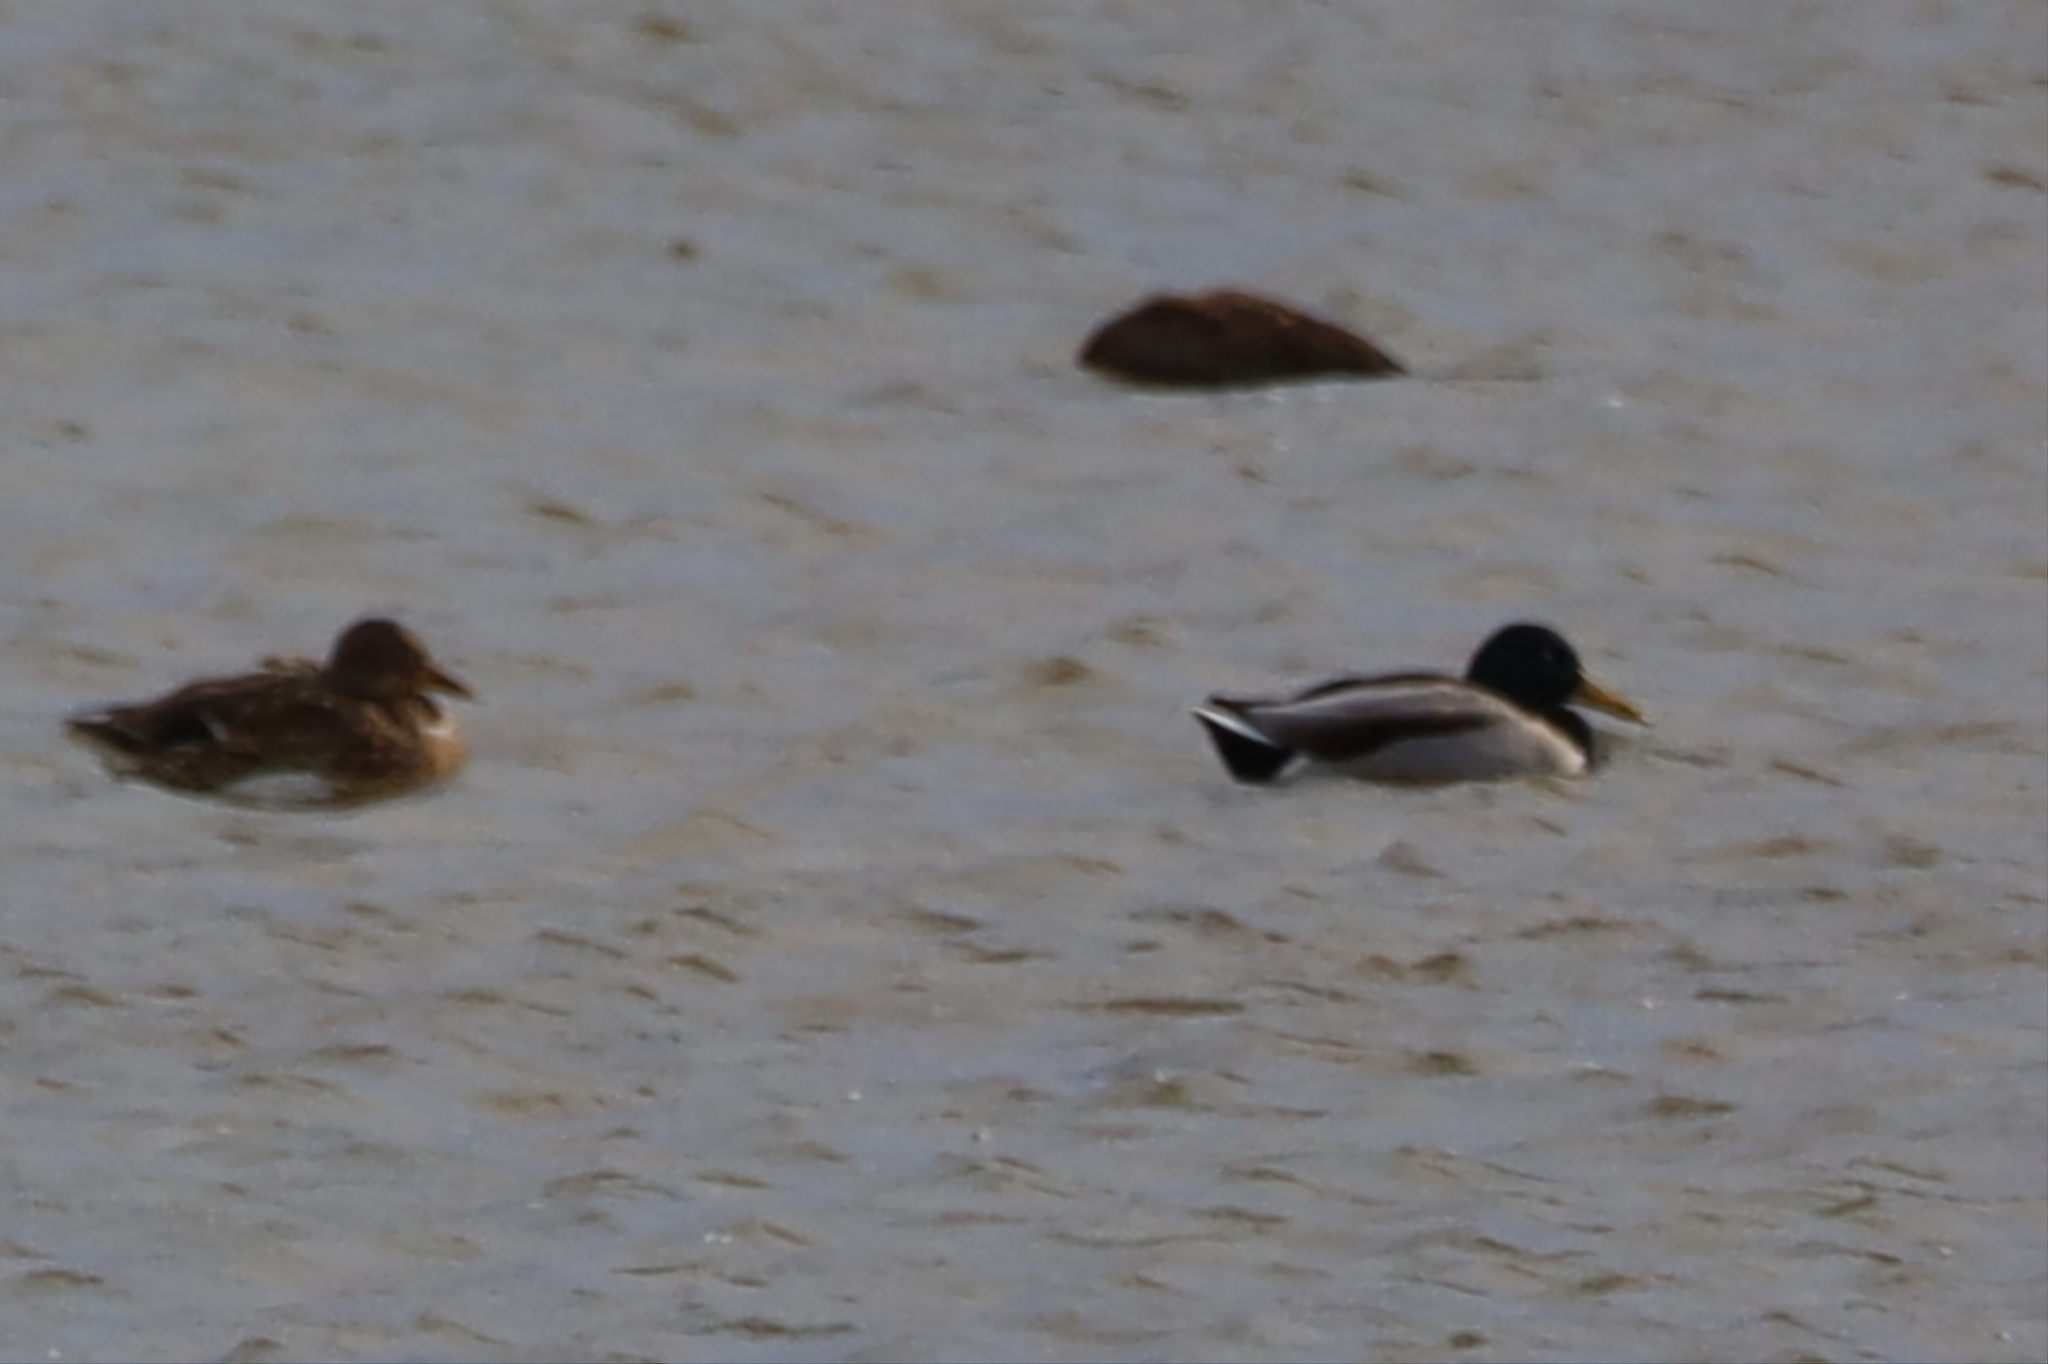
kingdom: Animalia
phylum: Chordata
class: Aves
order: Anseriformes
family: Anatidae
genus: Anas
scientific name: Anas platyrhynchos
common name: Mallard
